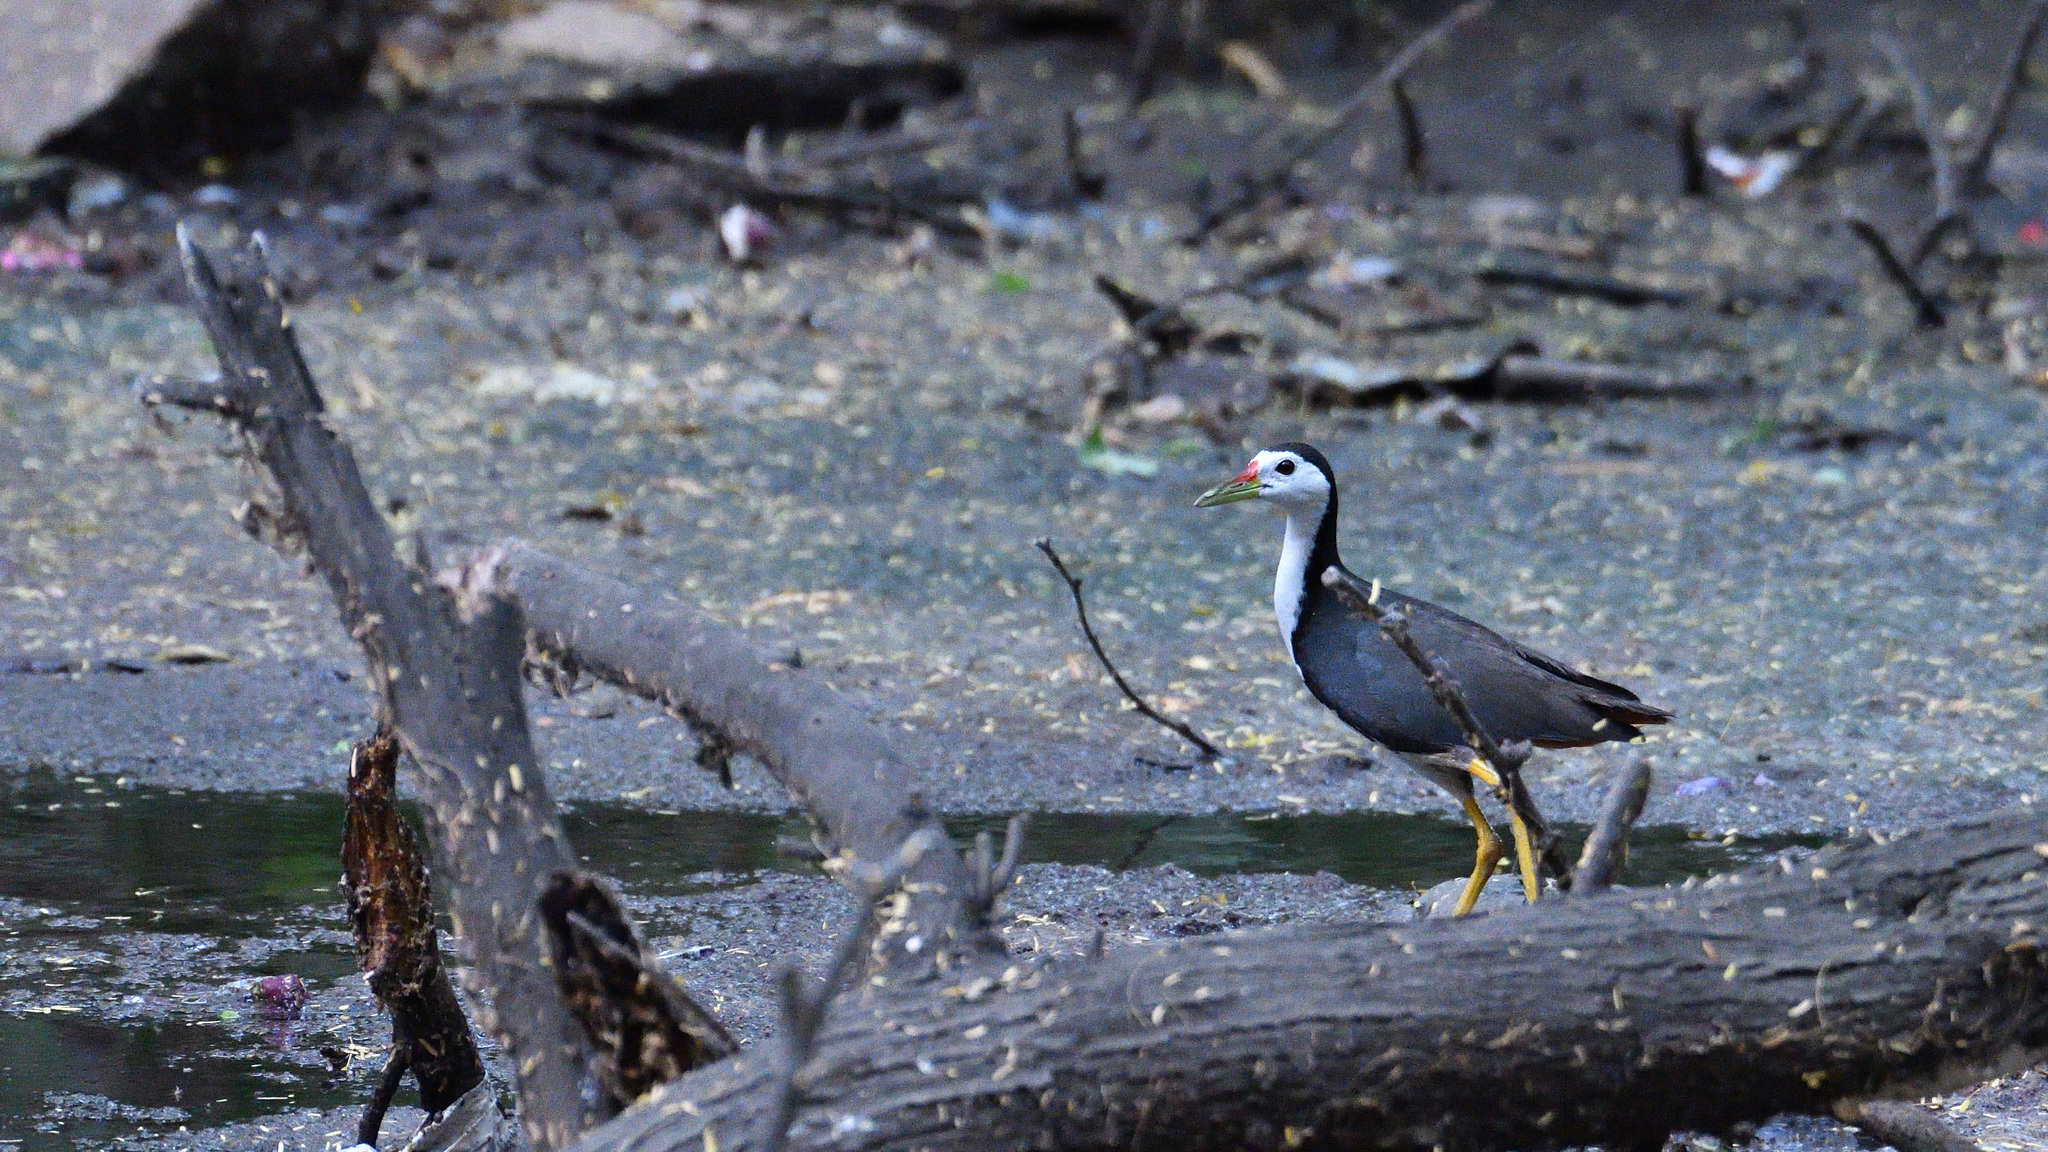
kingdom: Animalia
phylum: Chordata
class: Aves
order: Gruiformes
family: Rallidae
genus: Amaurornis
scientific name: Amaurornis phoenicurus
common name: White-breasted waterhen
